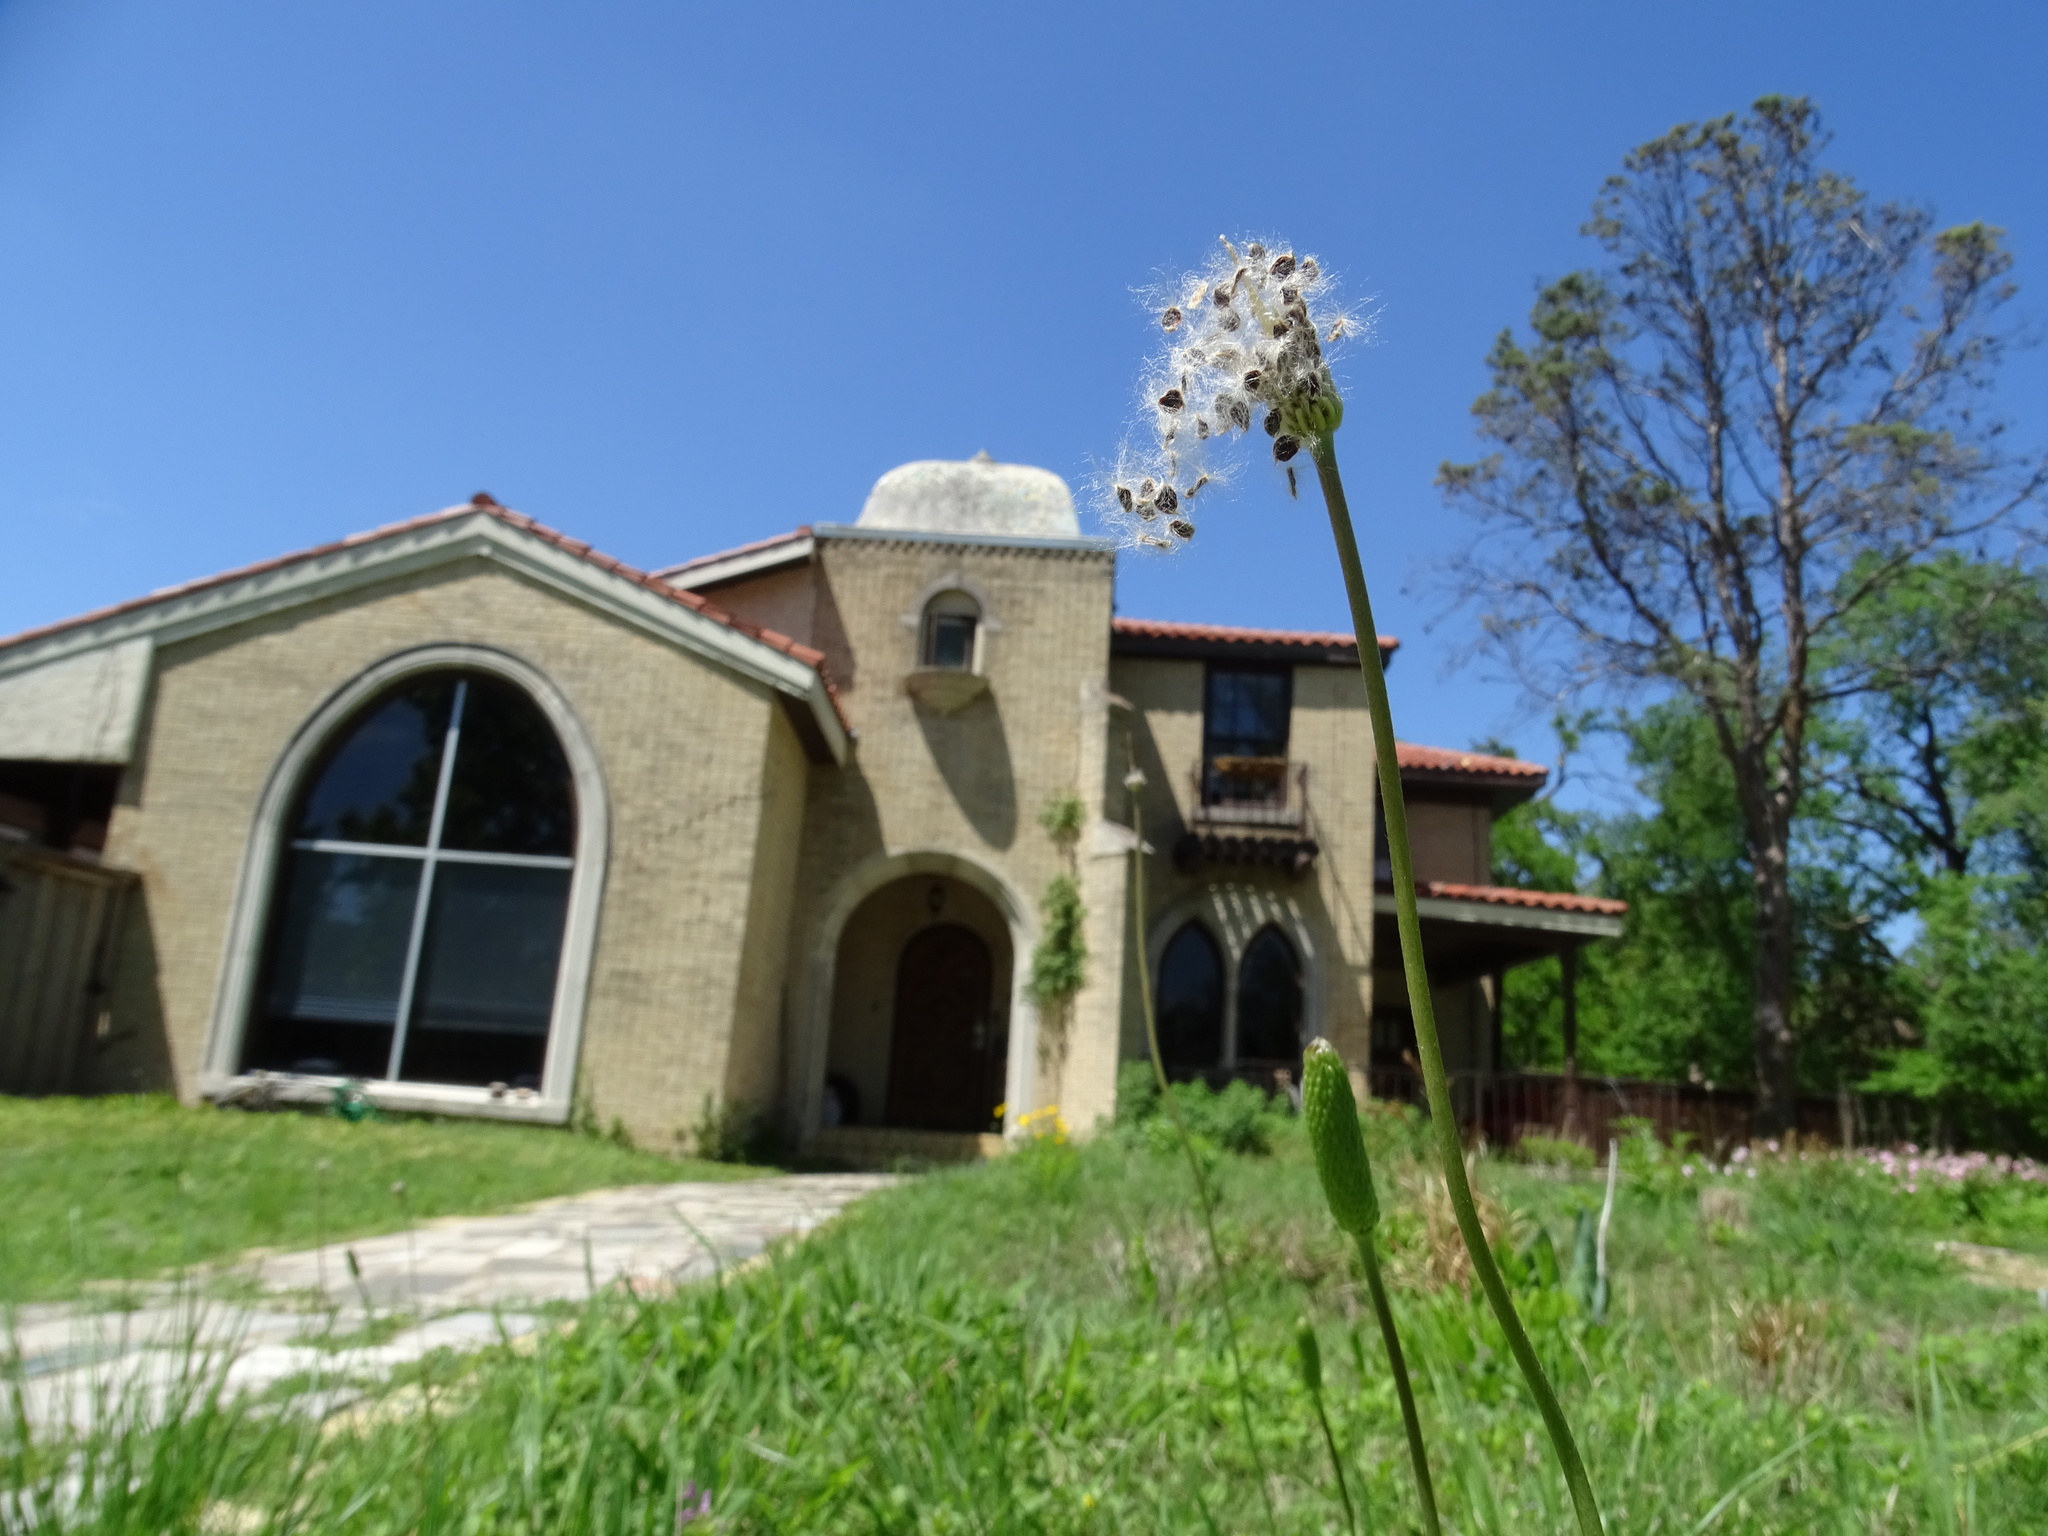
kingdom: Plantae
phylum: Tracheophyta
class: Magnoliopsida
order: Ranunculales
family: Ranunculaceae
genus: Anemone
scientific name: Anemone berlandieri
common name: Ten-petal anemone
